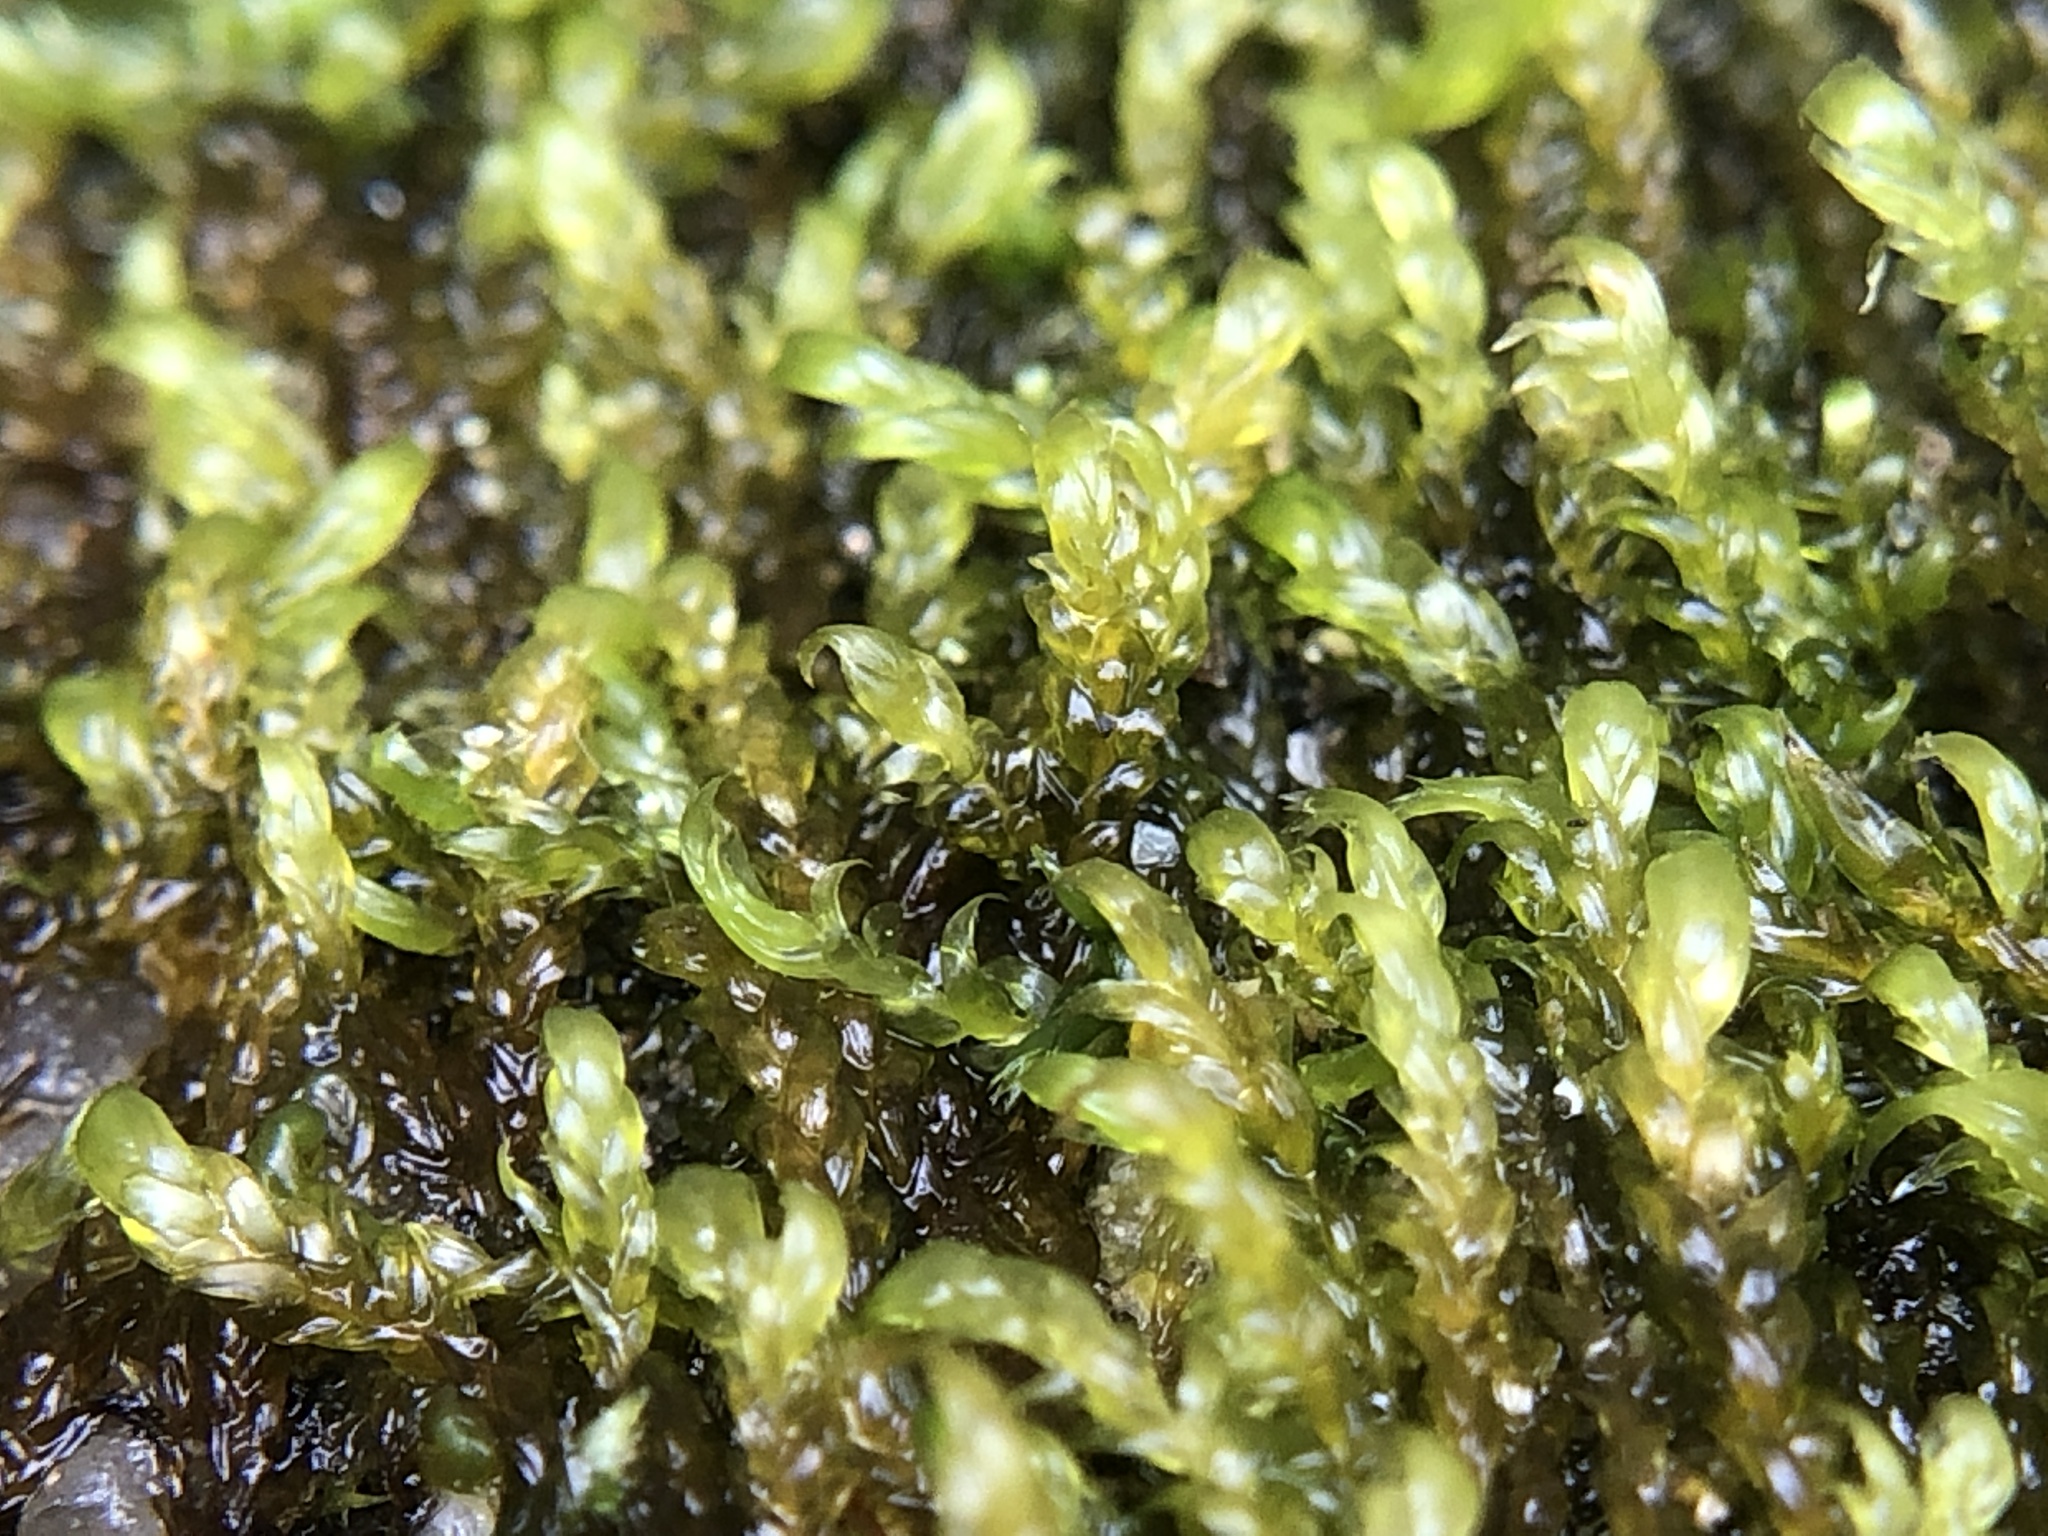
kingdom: Plantae
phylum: Bryophyta
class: Bryopsida
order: Hypnales
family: Scorpidiaceae
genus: Hygrohypnella
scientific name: Hygrohypnella ochracea
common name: Hygrohypnum moss
